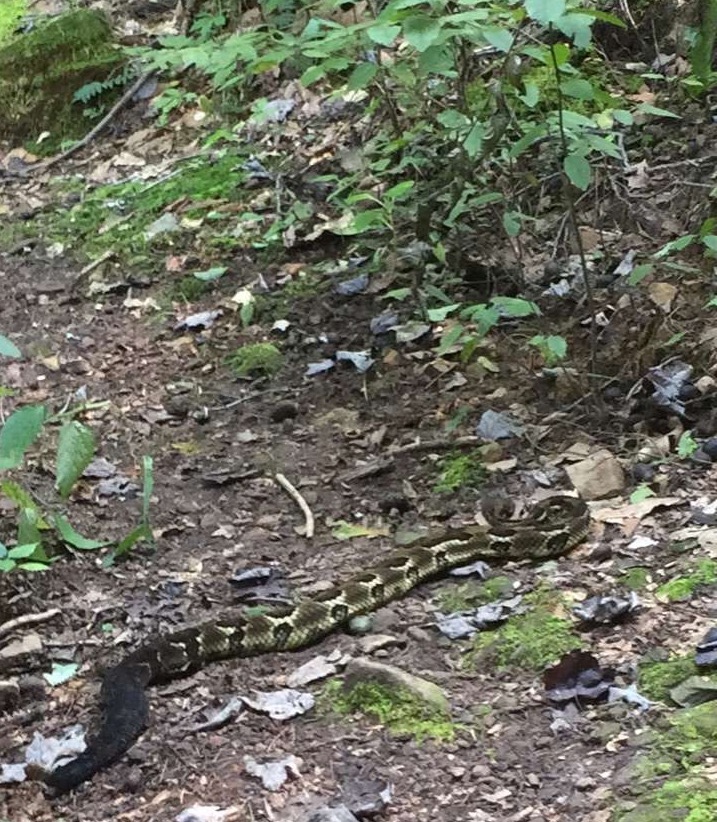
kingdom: Animalia
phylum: Chordata
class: Squamata
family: Viperidae
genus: Crotalus
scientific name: Crotalus horridus
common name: Timber rattlesnake
